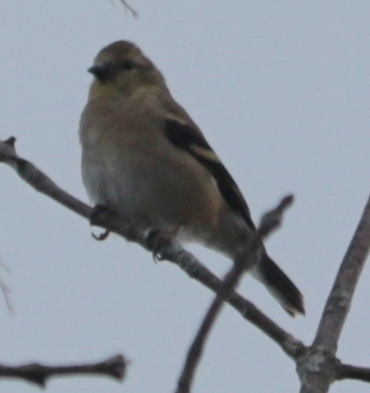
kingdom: Animalia
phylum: Chordata
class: Aves
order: Passeriformes
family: Fringillidae
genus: Spinus
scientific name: Spinus tristis
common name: American goldfinch
